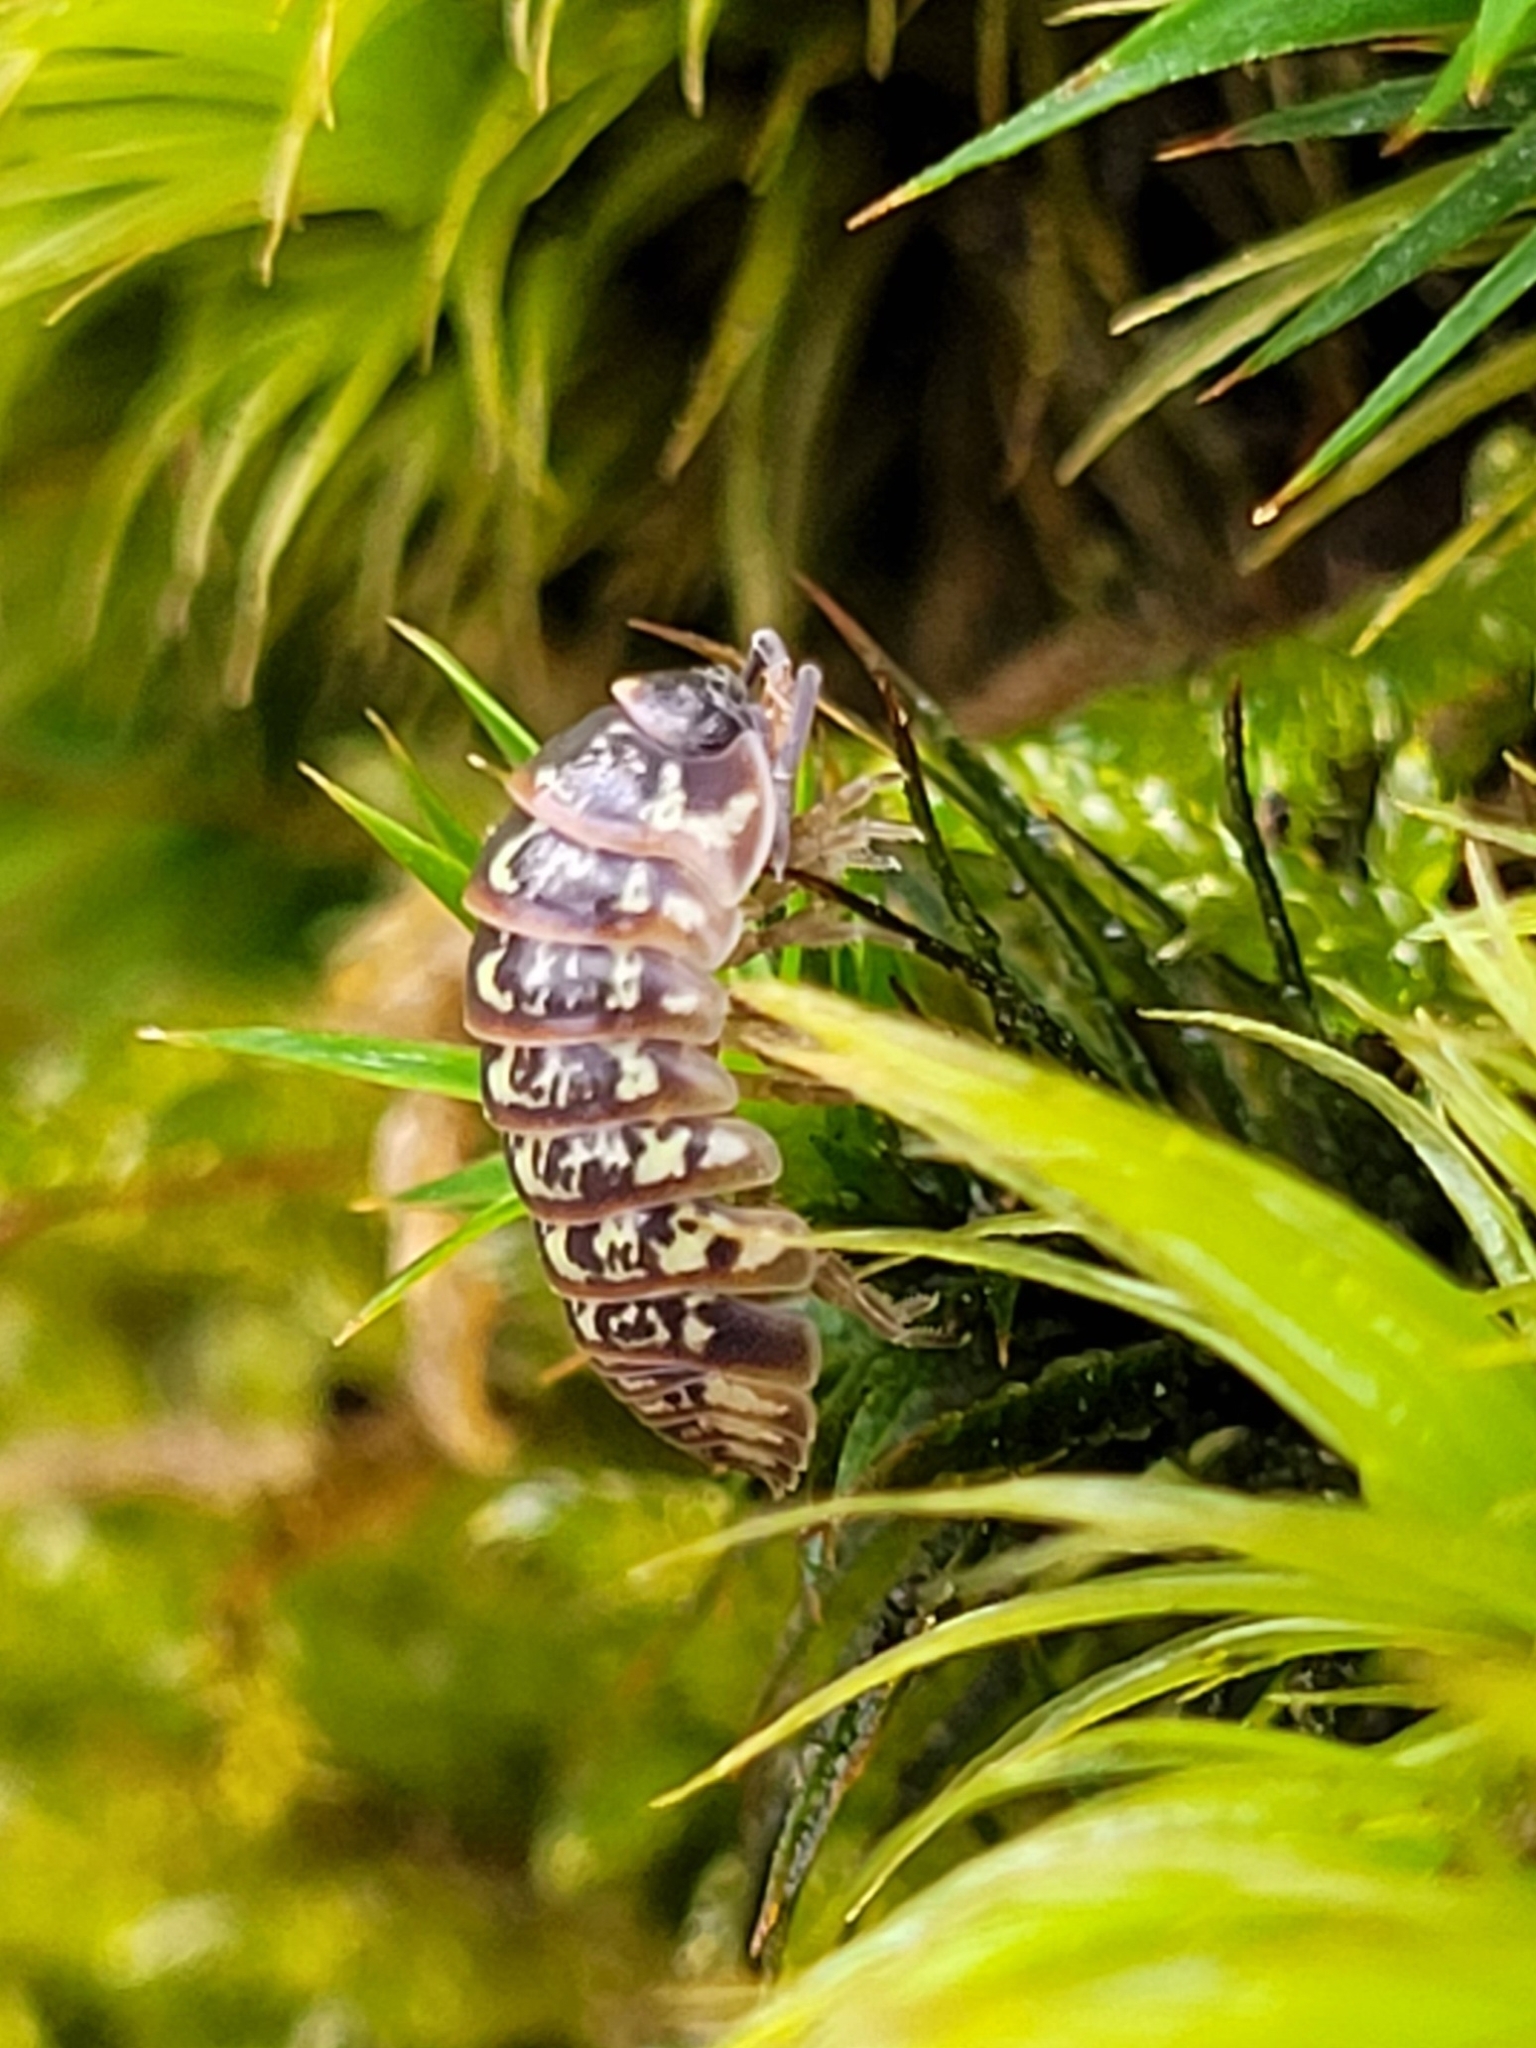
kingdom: Animalia
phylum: Arthropoda
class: Malacostraca
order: Isopoda
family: Armadillidiidae
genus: Armadillidium
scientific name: Armadillidium pictum
